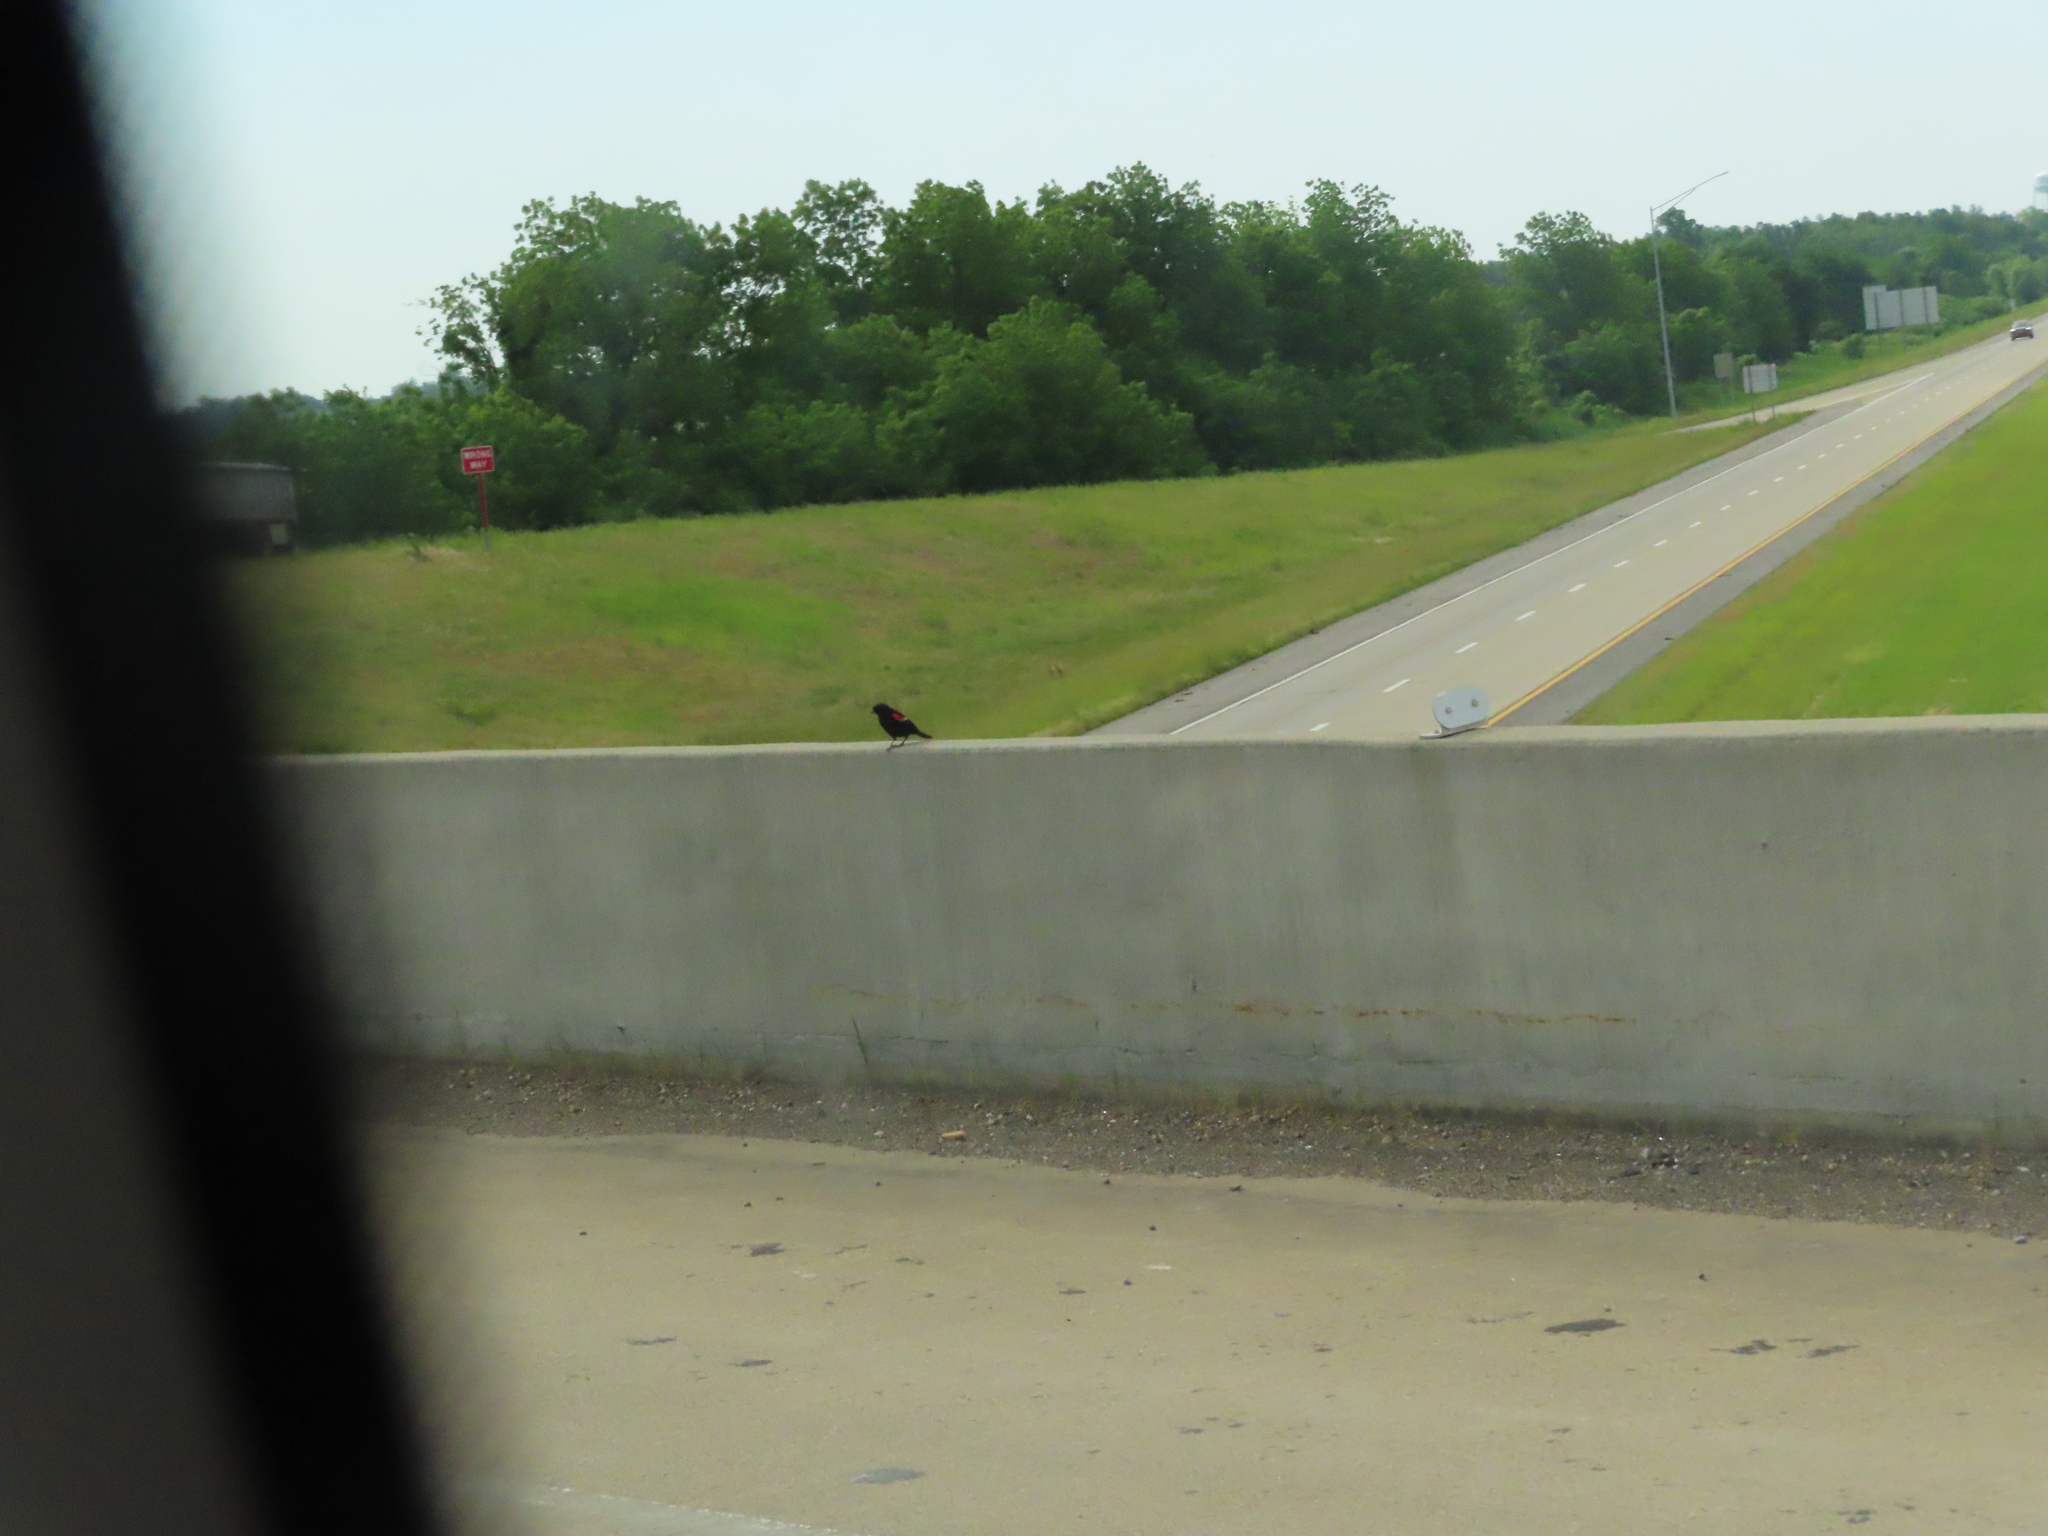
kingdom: Animalia
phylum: Chordata
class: Aves
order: Passeriformes
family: Icteridae
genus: Agelaius
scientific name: Agelaius phoeniceus
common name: Red-winged blackbird
